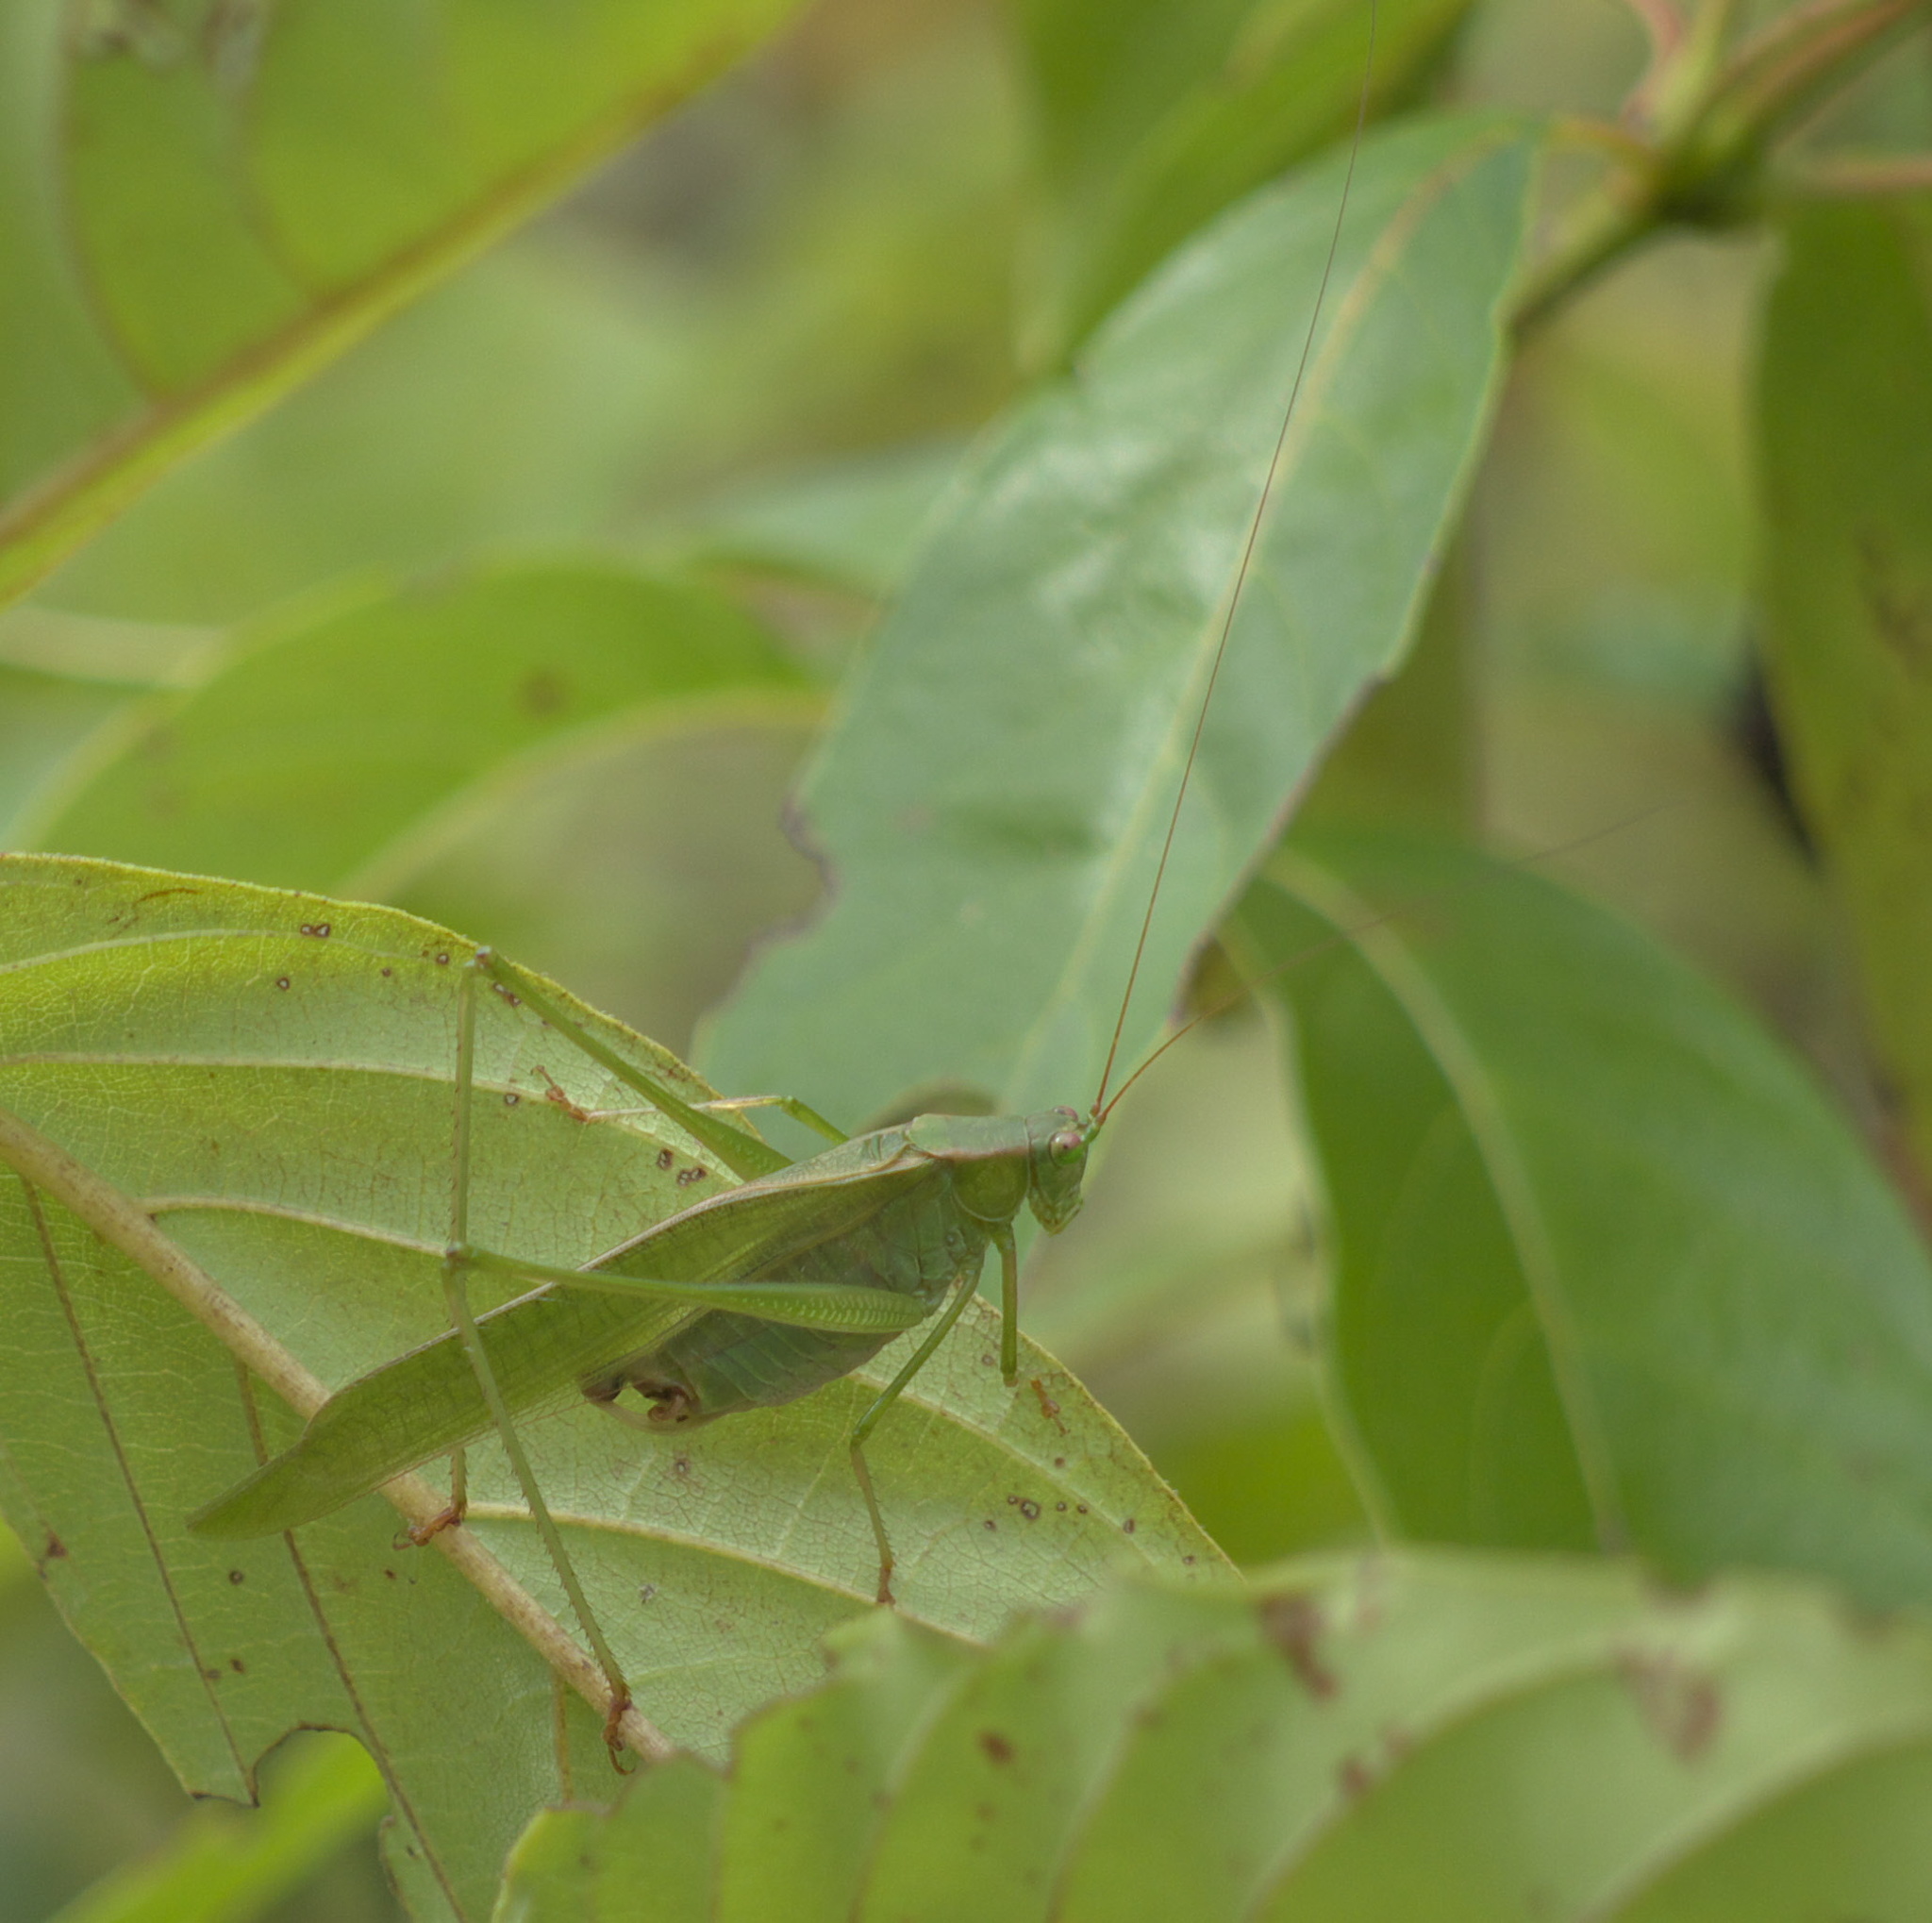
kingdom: Animalia
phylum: Arthropoda
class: Insecta
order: Orthoptera
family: Tettigoniidae
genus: Scudderia
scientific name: Scudderia furcata
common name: Fork-tailed bush katydid
